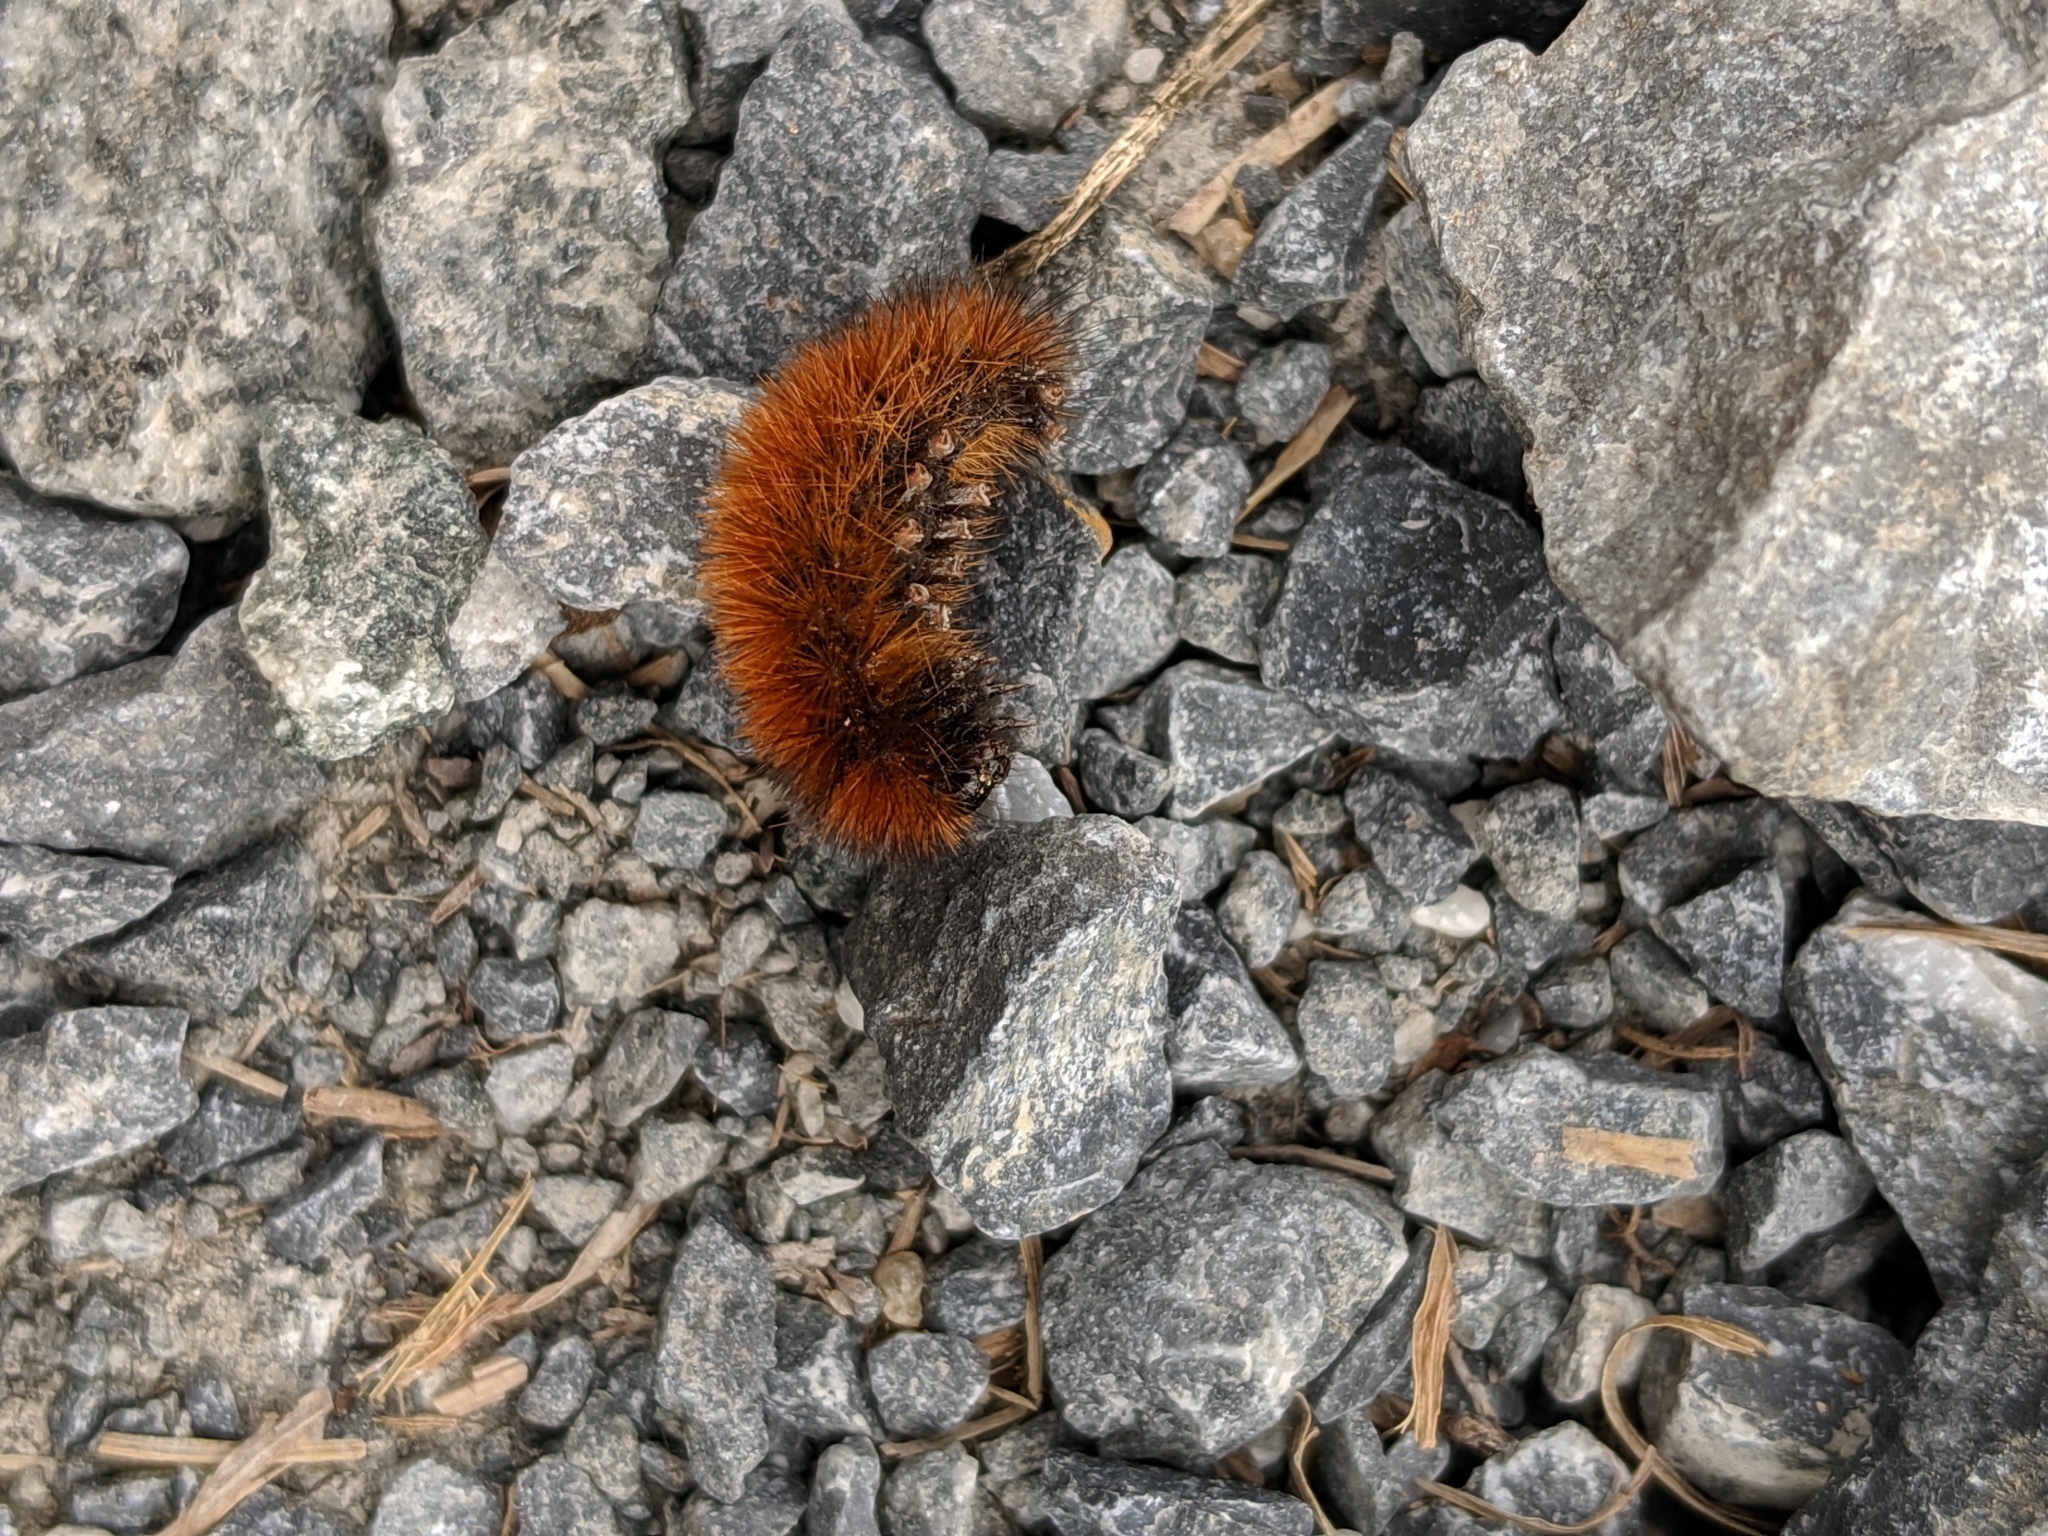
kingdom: Animalia
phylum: Arthropoda
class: Insecta
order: Lepidoptera
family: Erebidae
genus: Pyrrharctia
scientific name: Pyrrharctia isabella
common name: Isabella tiger moth
